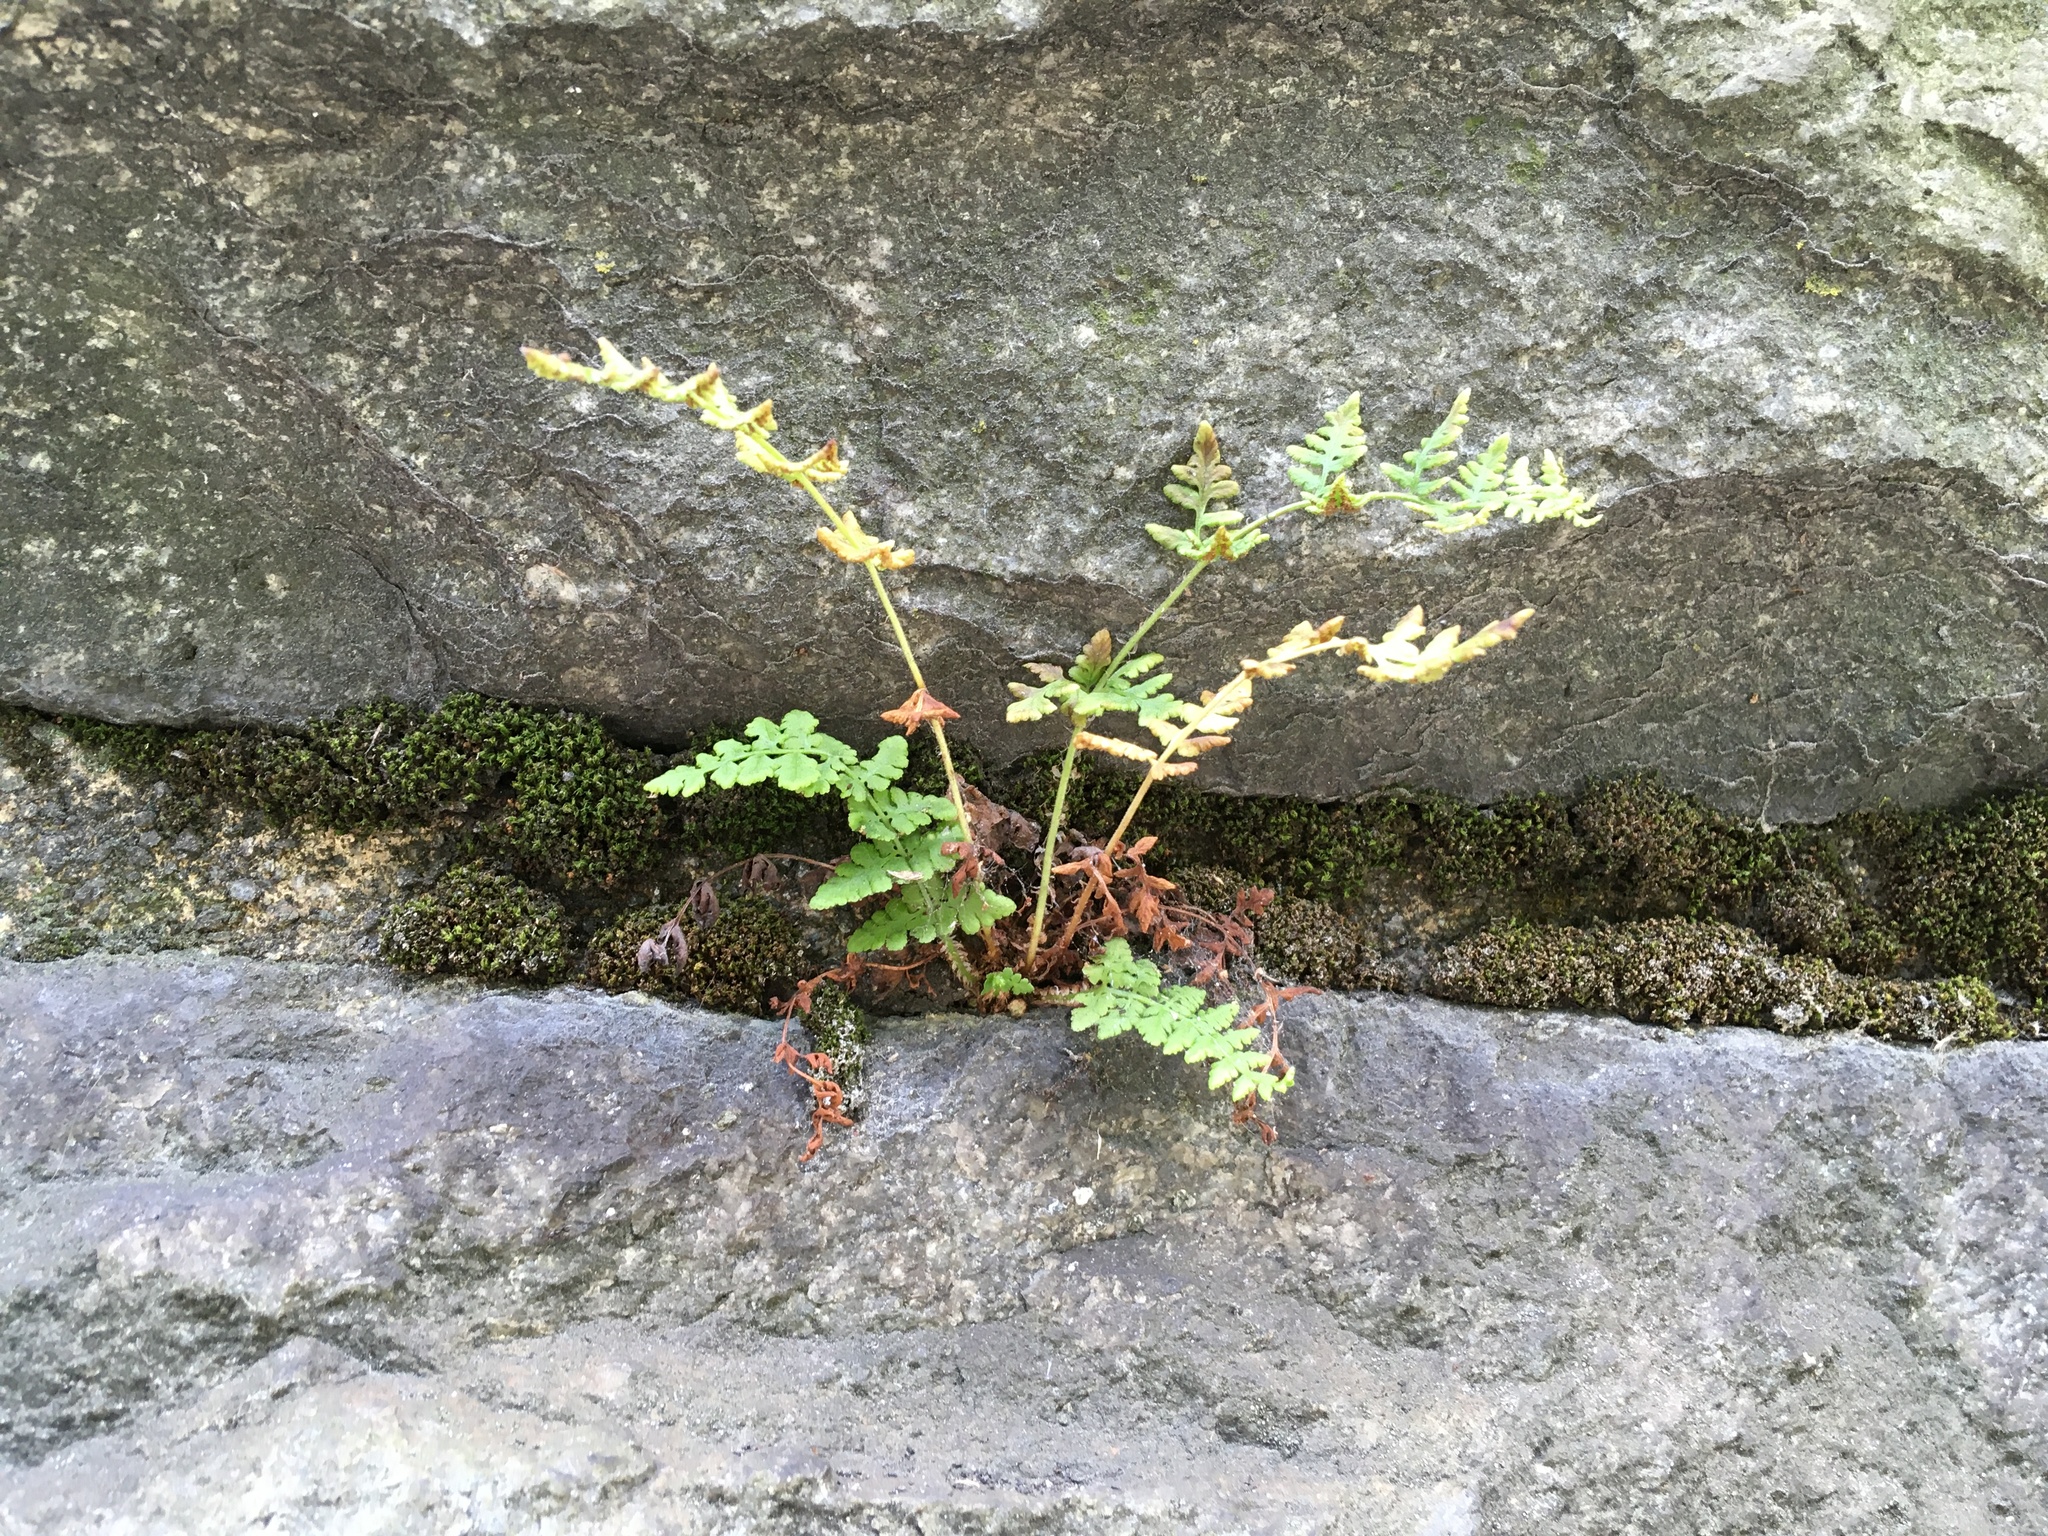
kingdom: Plantae
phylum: Tracheophyta
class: Polypodiopsida
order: Polypodiales
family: Woodsiaceae
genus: Physematium
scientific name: Physematium obtusum
